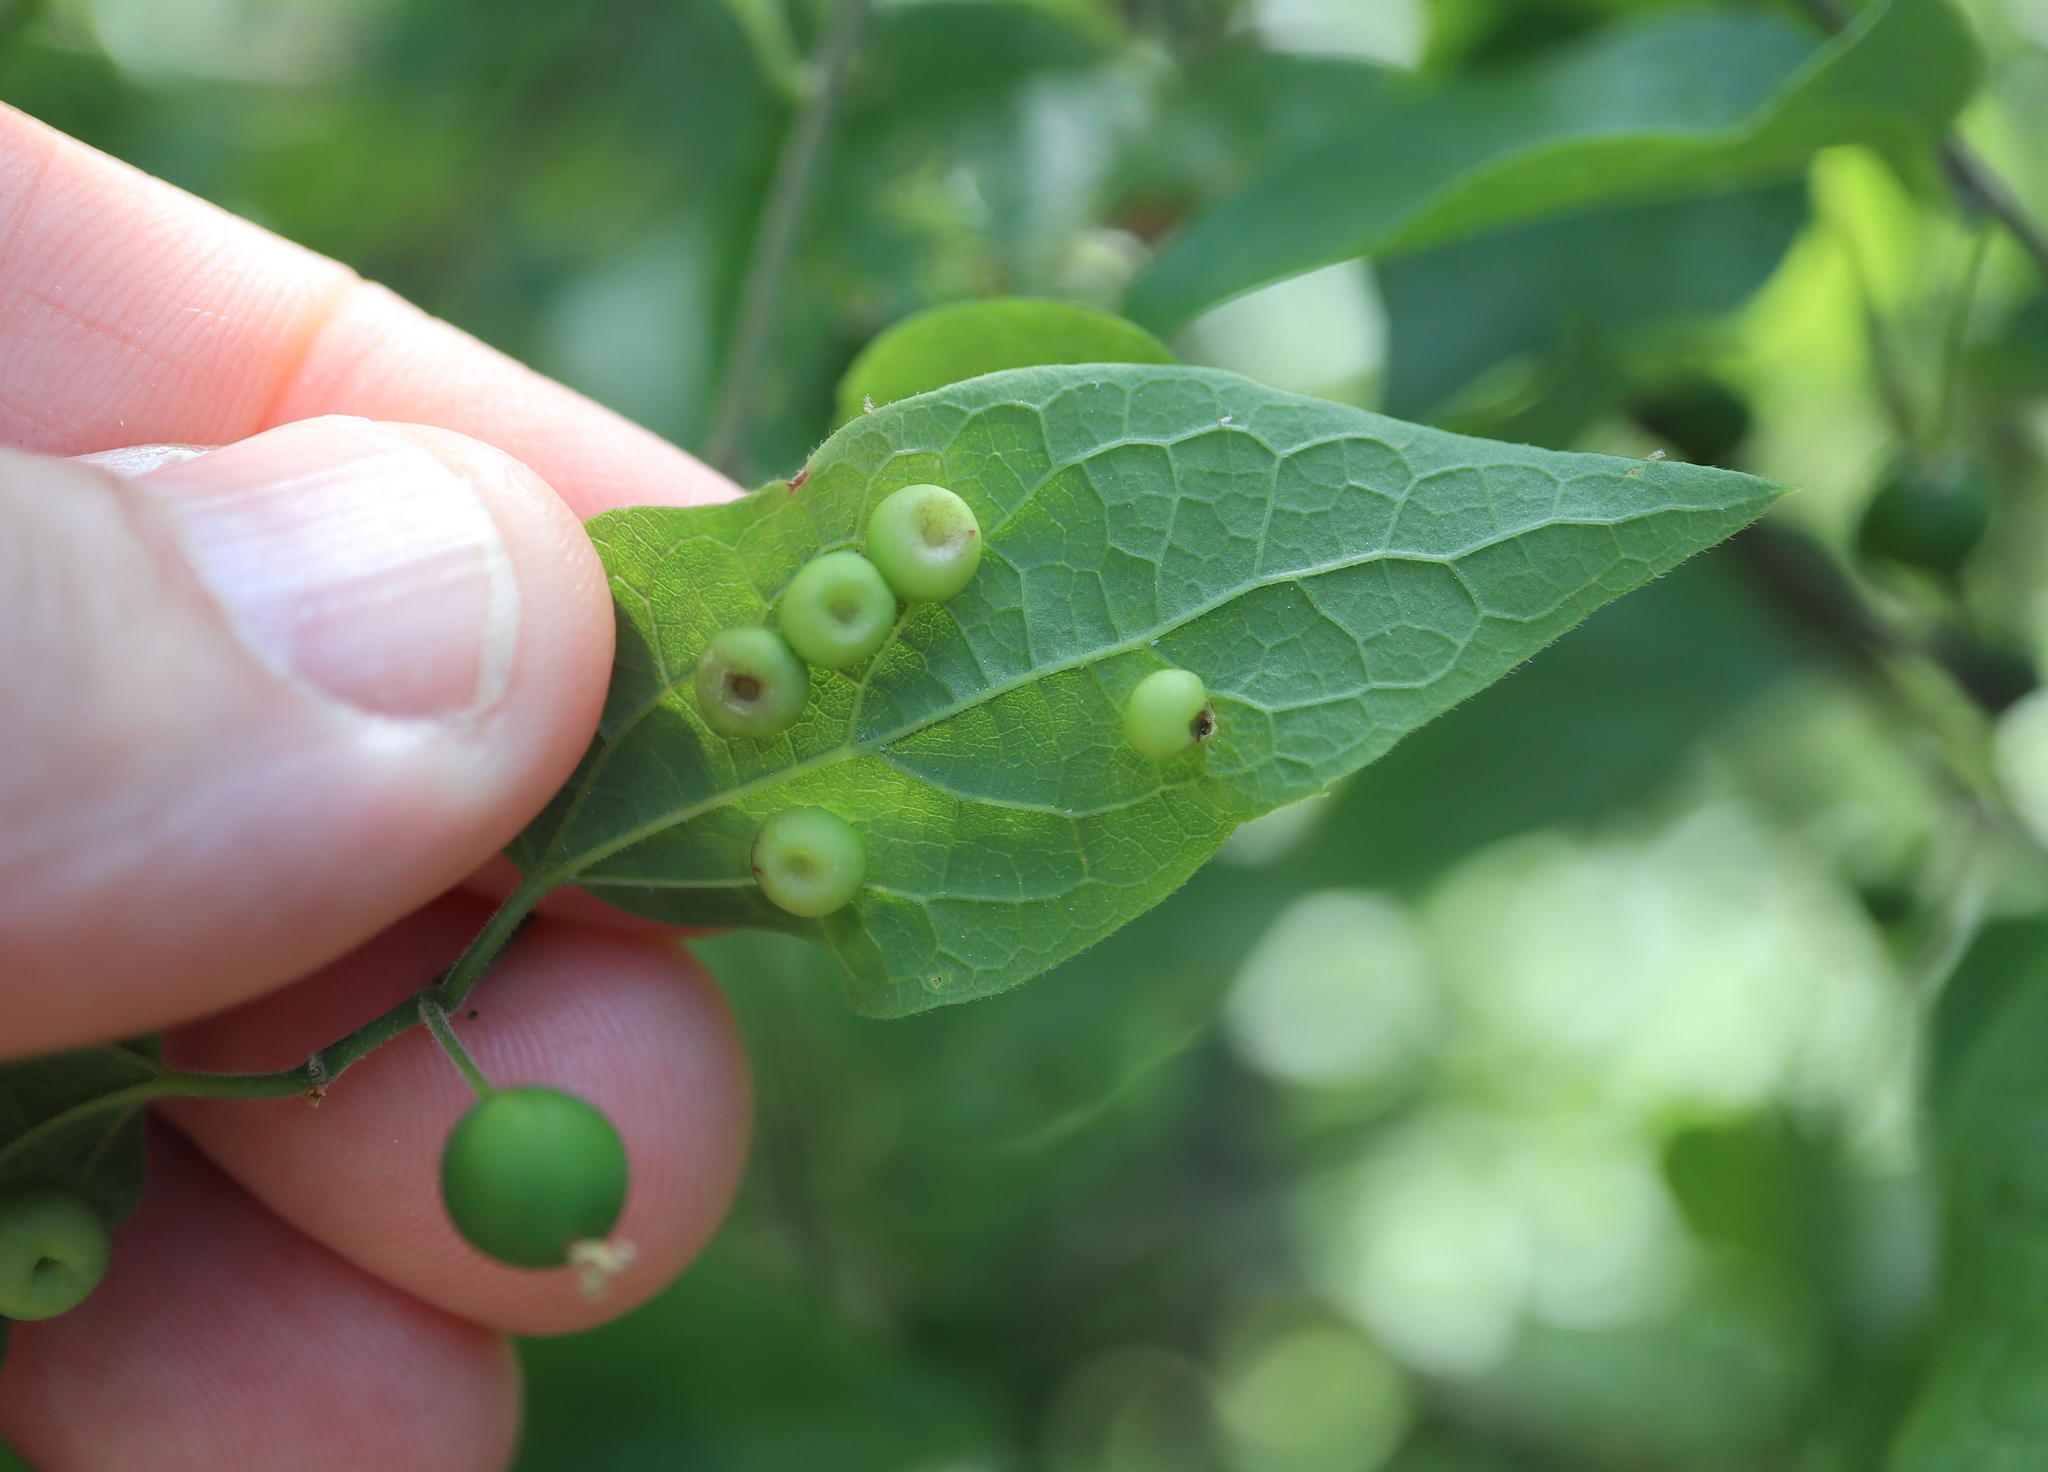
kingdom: Animalia
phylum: Arthropoda
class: Insecta
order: Hemiptera
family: Aphalaridae
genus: Pachypsylla
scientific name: Pachypsylla celtidismamma
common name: Hackberry nipplegall psyllid
